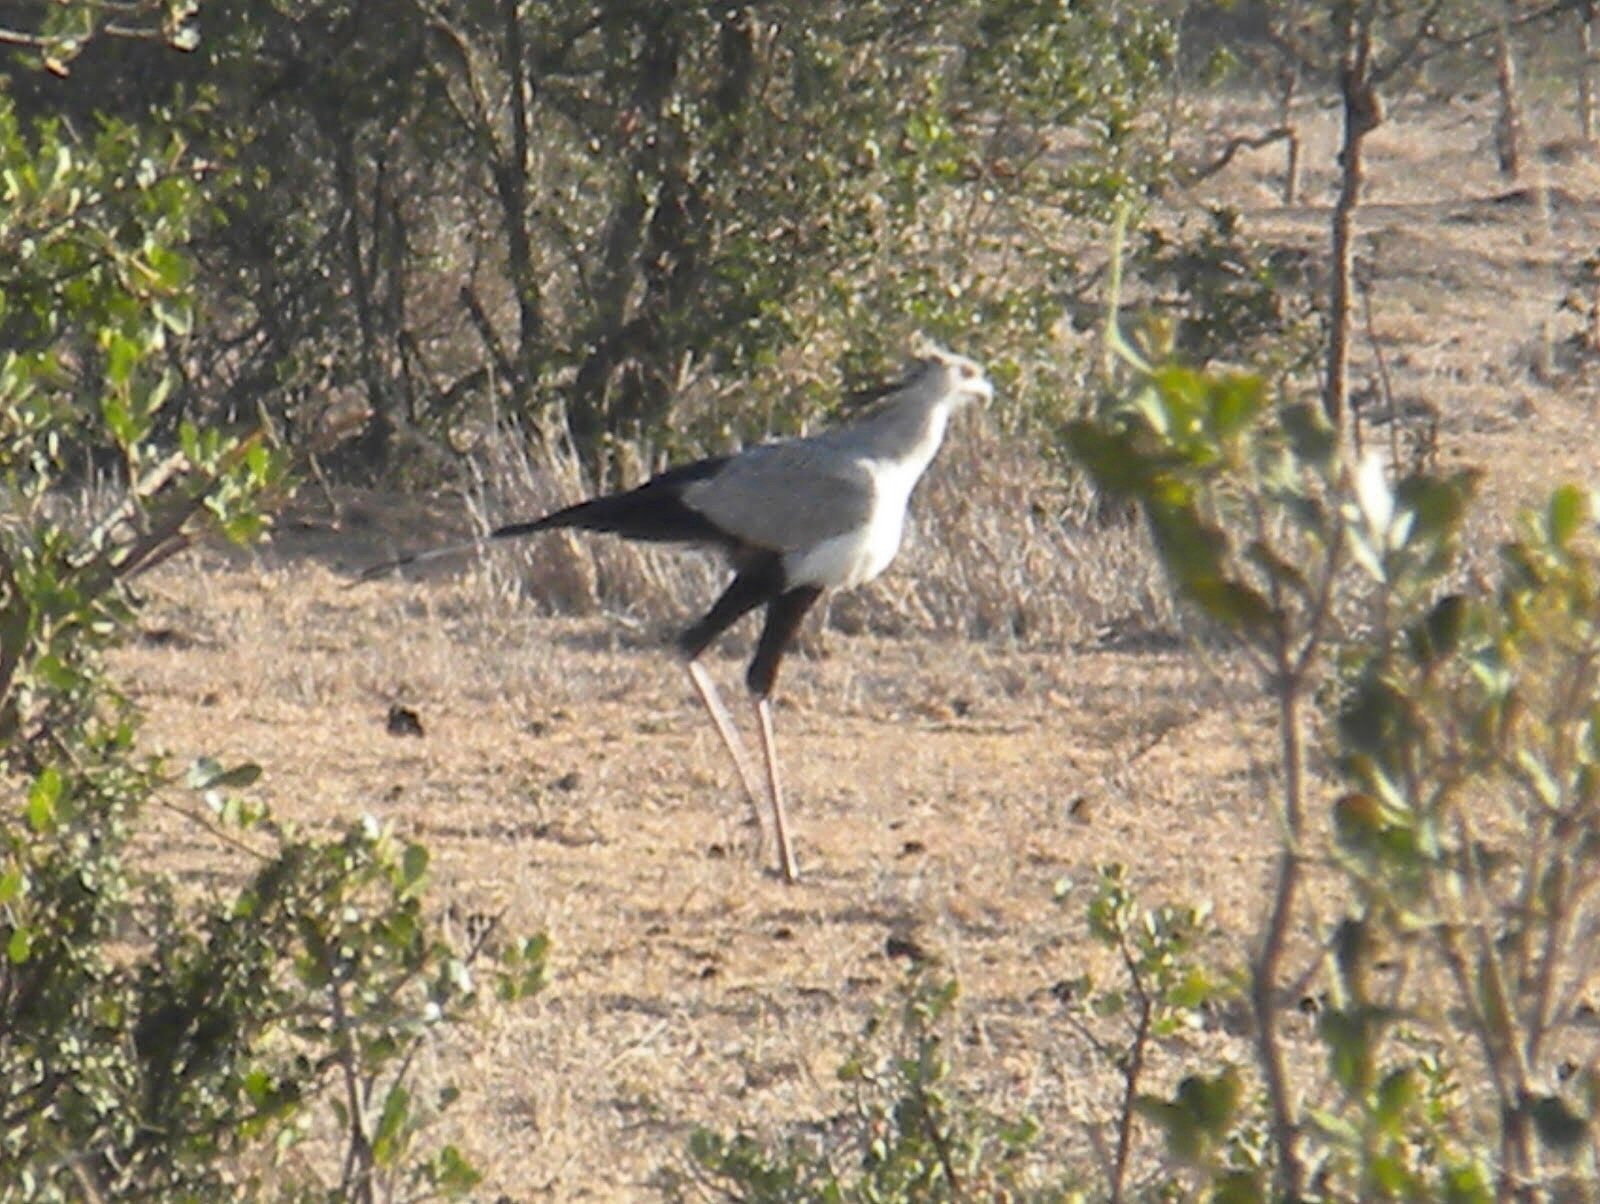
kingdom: Animalia
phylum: Chordata
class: Aves
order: Accipitriformes
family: Sagittariidae
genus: Sagittarius
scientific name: Sagittarius serpentarius
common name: Secretarybird
